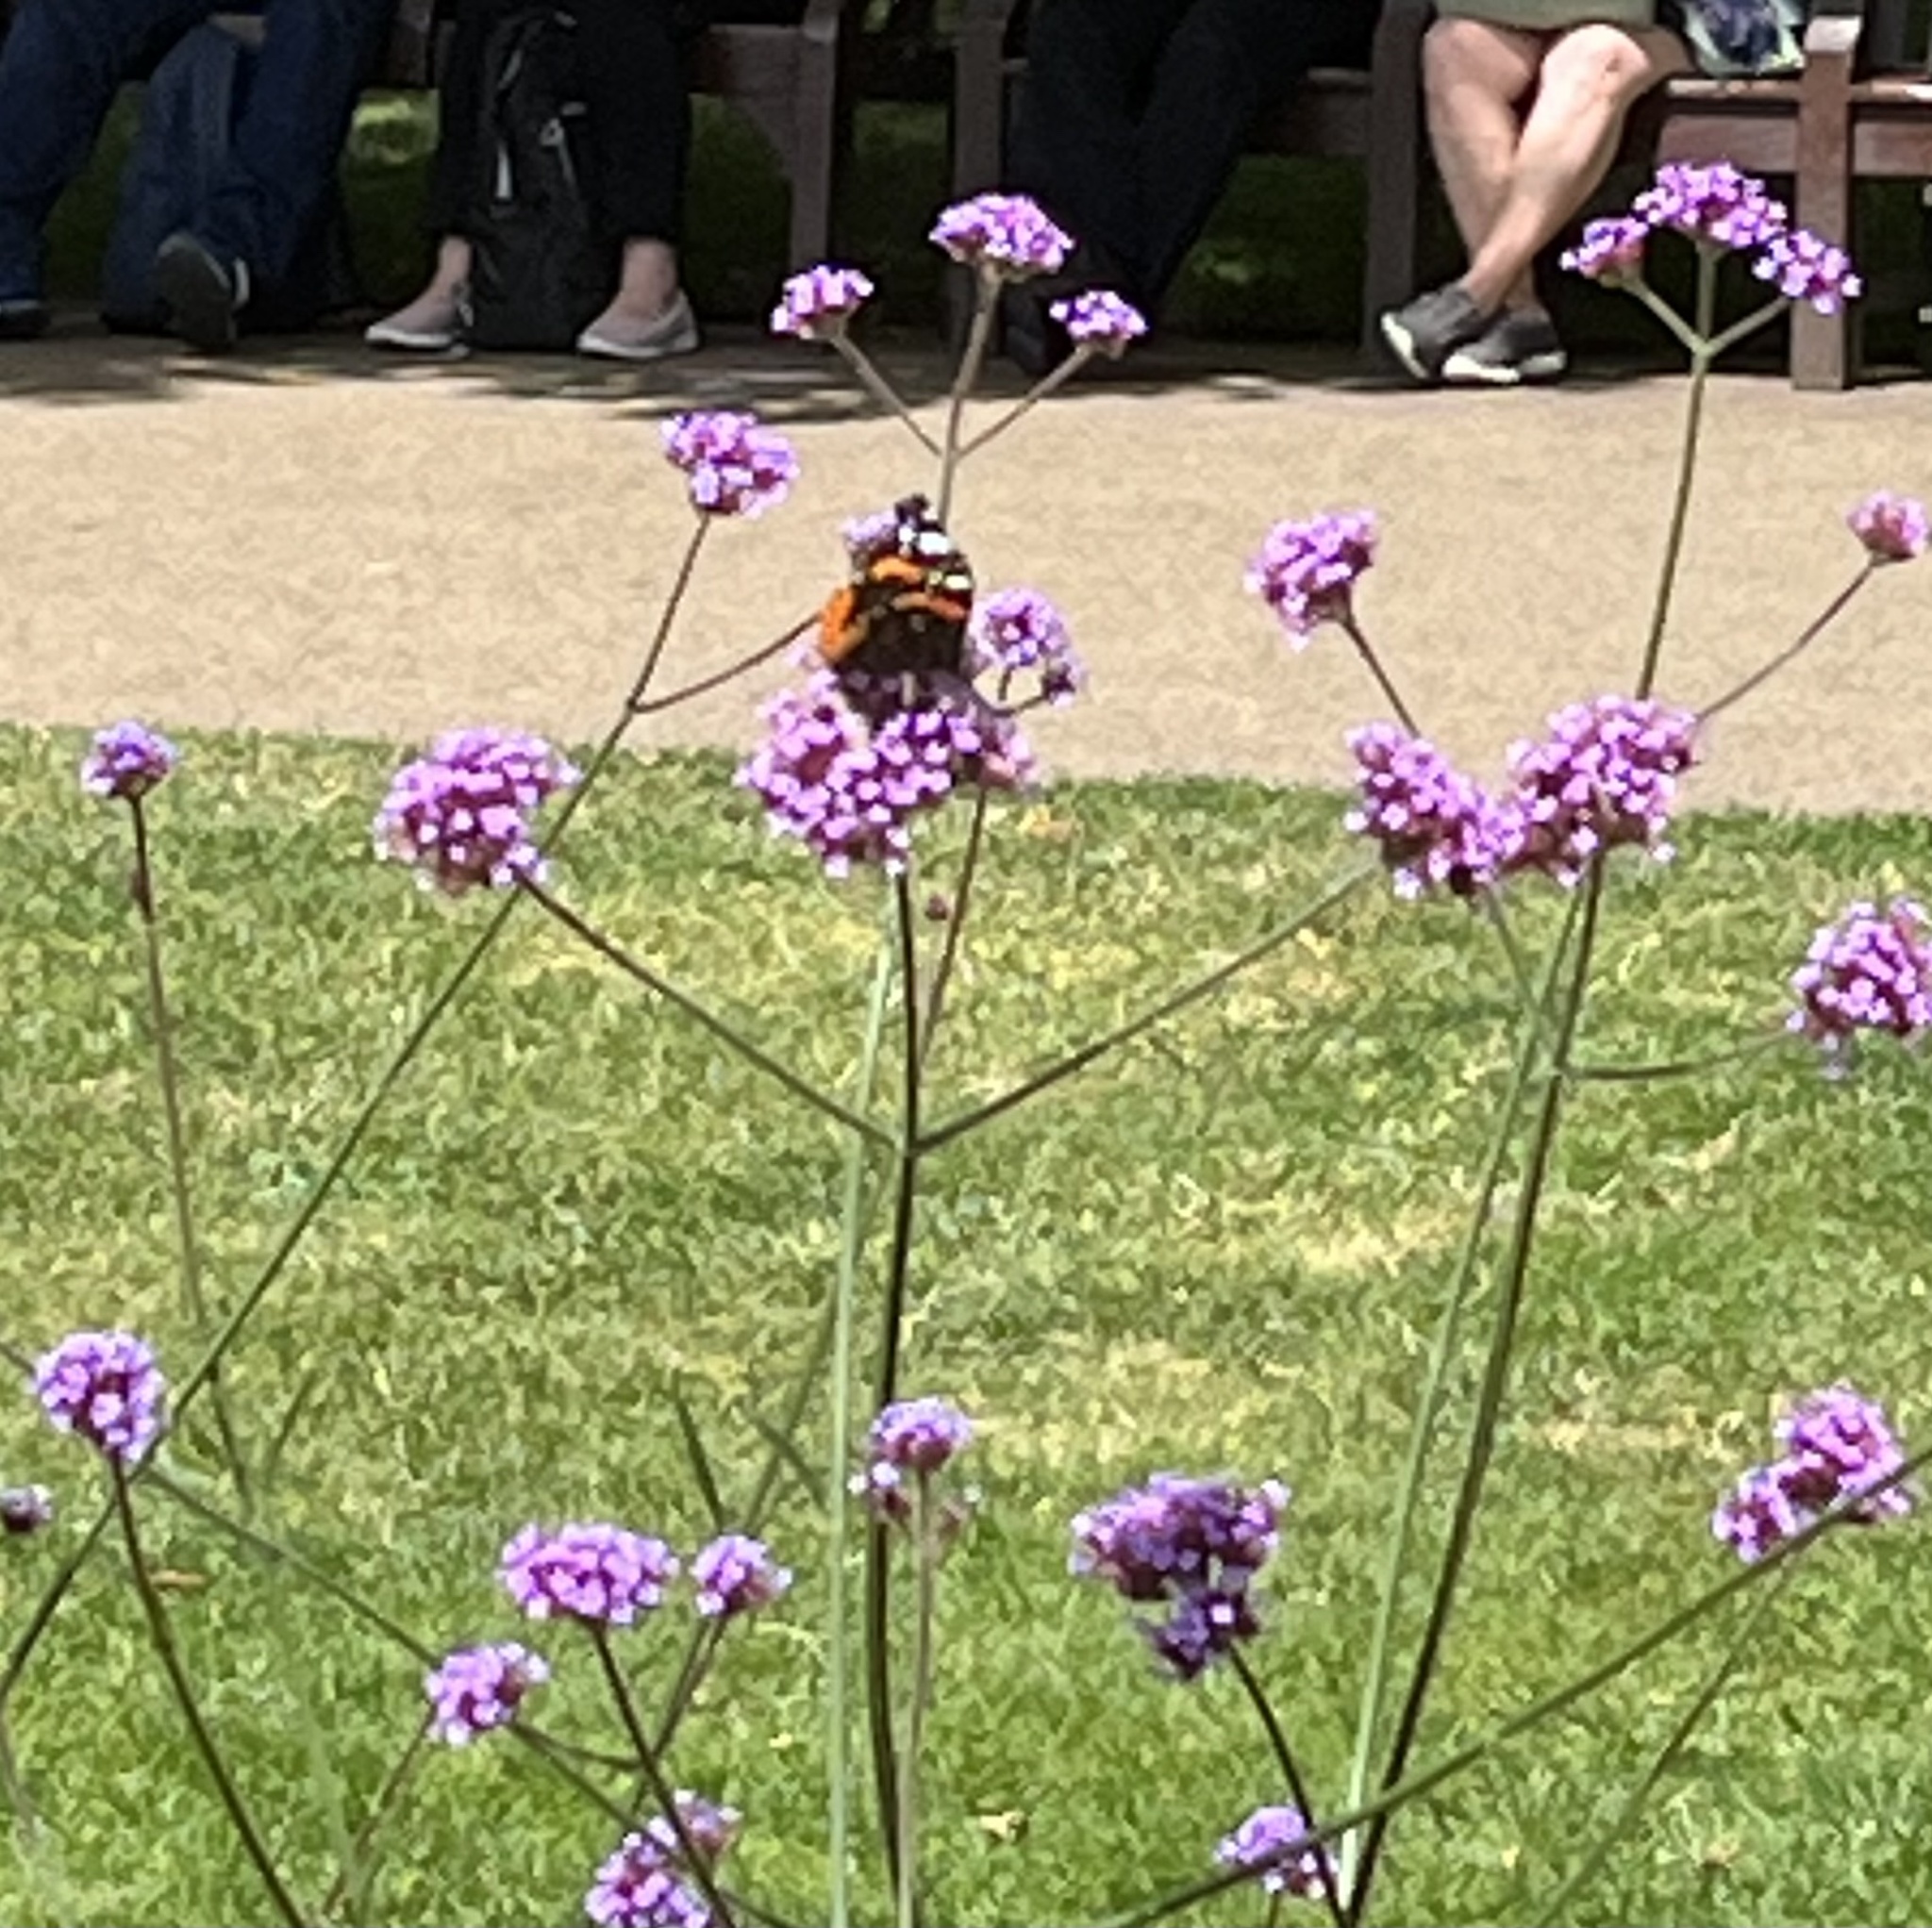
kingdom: Animalia
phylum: Arthropoda
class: Insecta
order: Lepidoptera
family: Nymphalidae
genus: Vanessa
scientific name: Vanessa atalanta
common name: Red admiral
